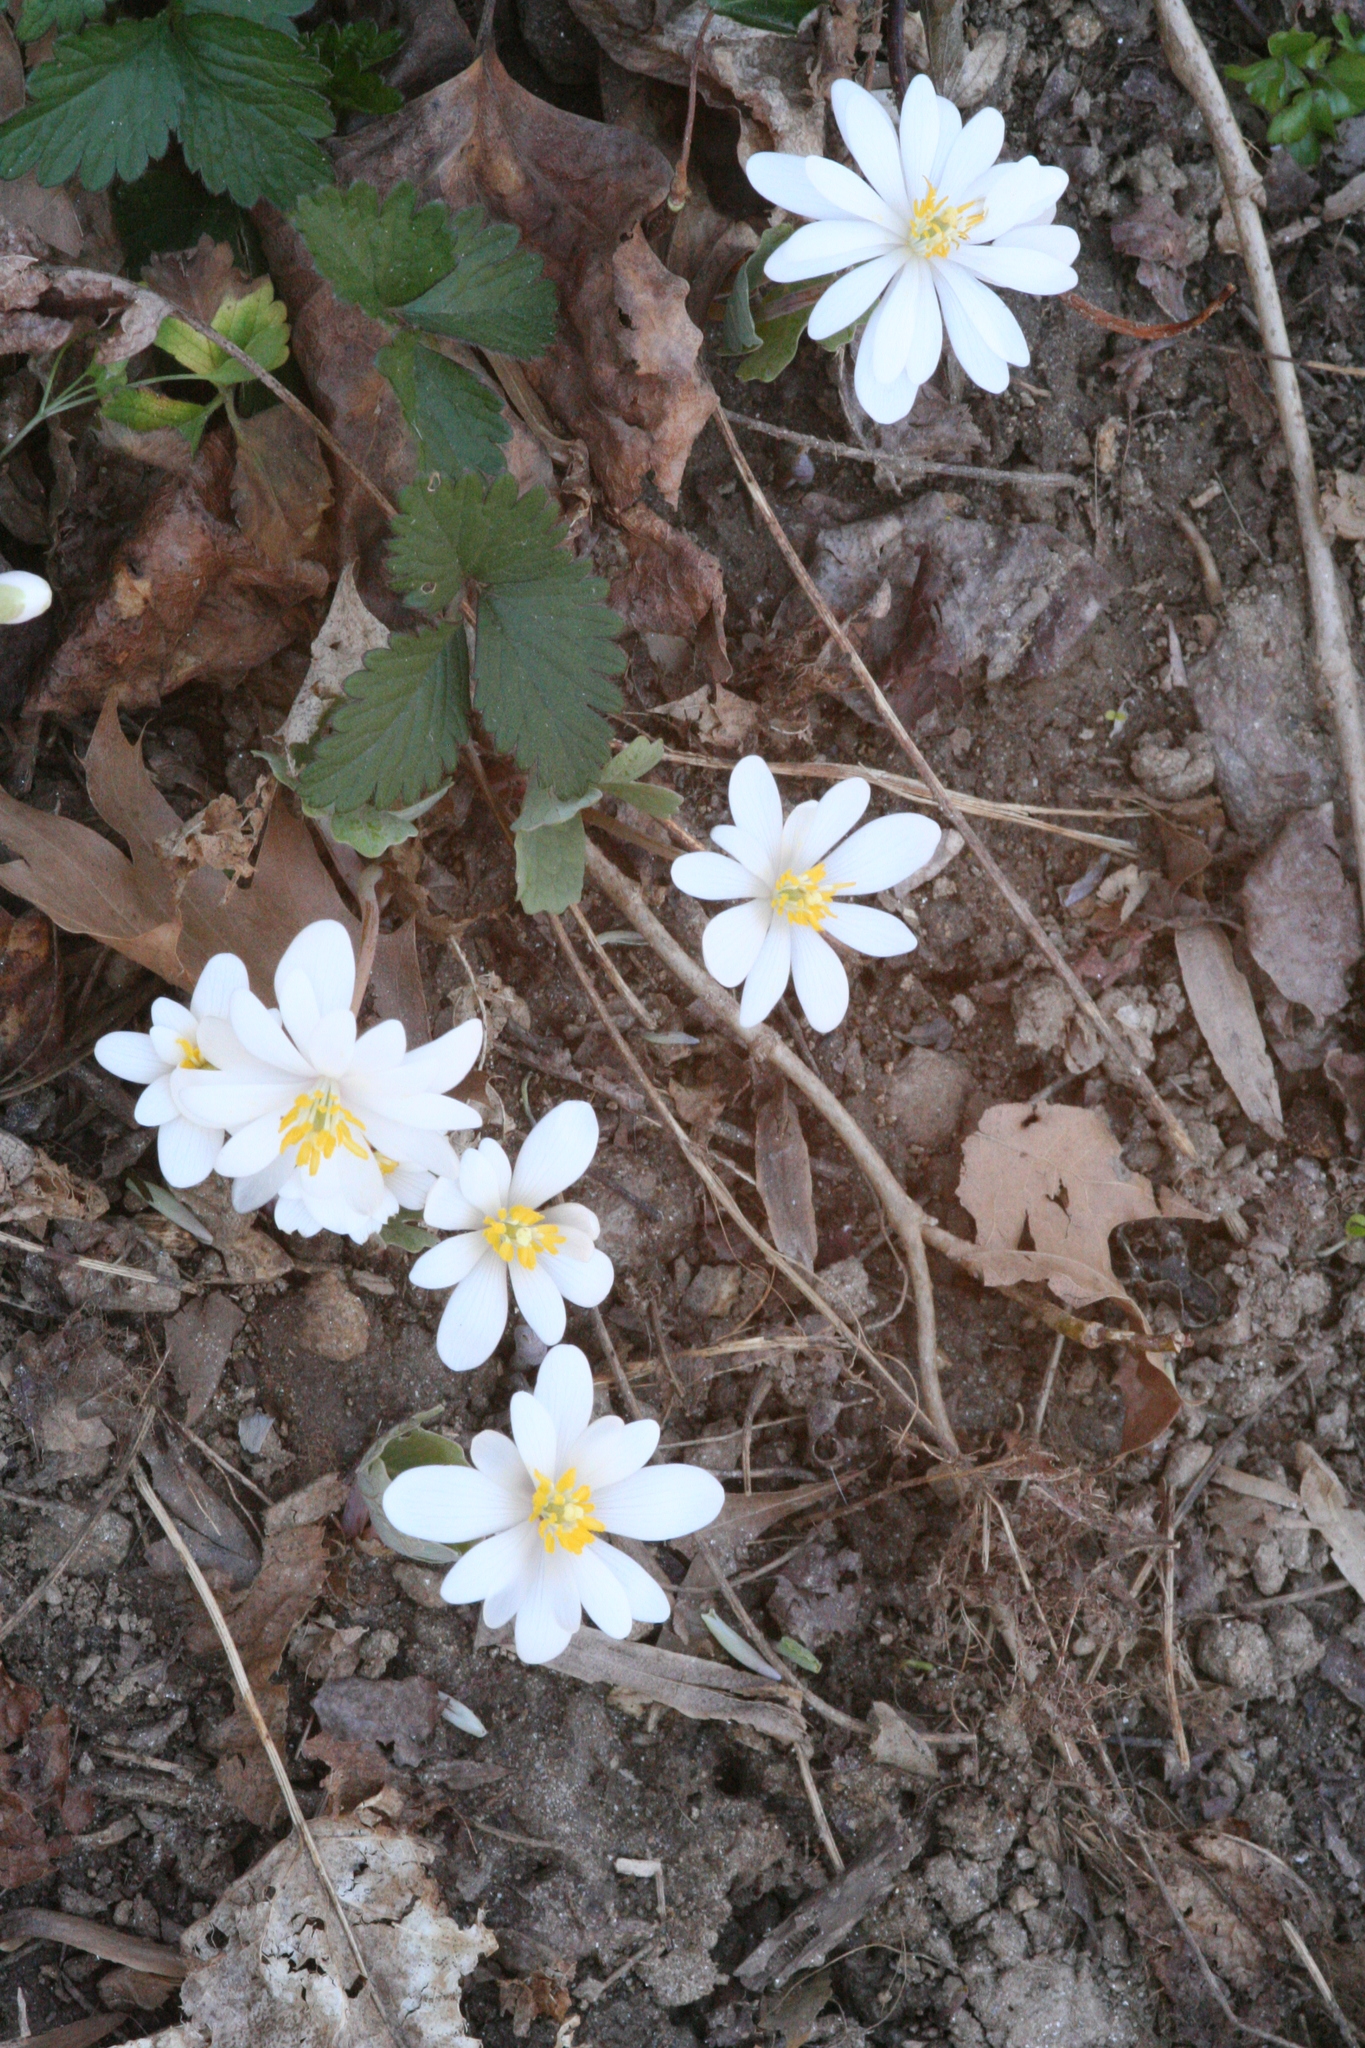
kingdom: Plantae
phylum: Tracheophyta
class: Magnoliopsida
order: Ranunculales
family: Papaveraceae
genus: Sanguinaria
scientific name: Sanguinaria canadensis
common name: Bloodroot
